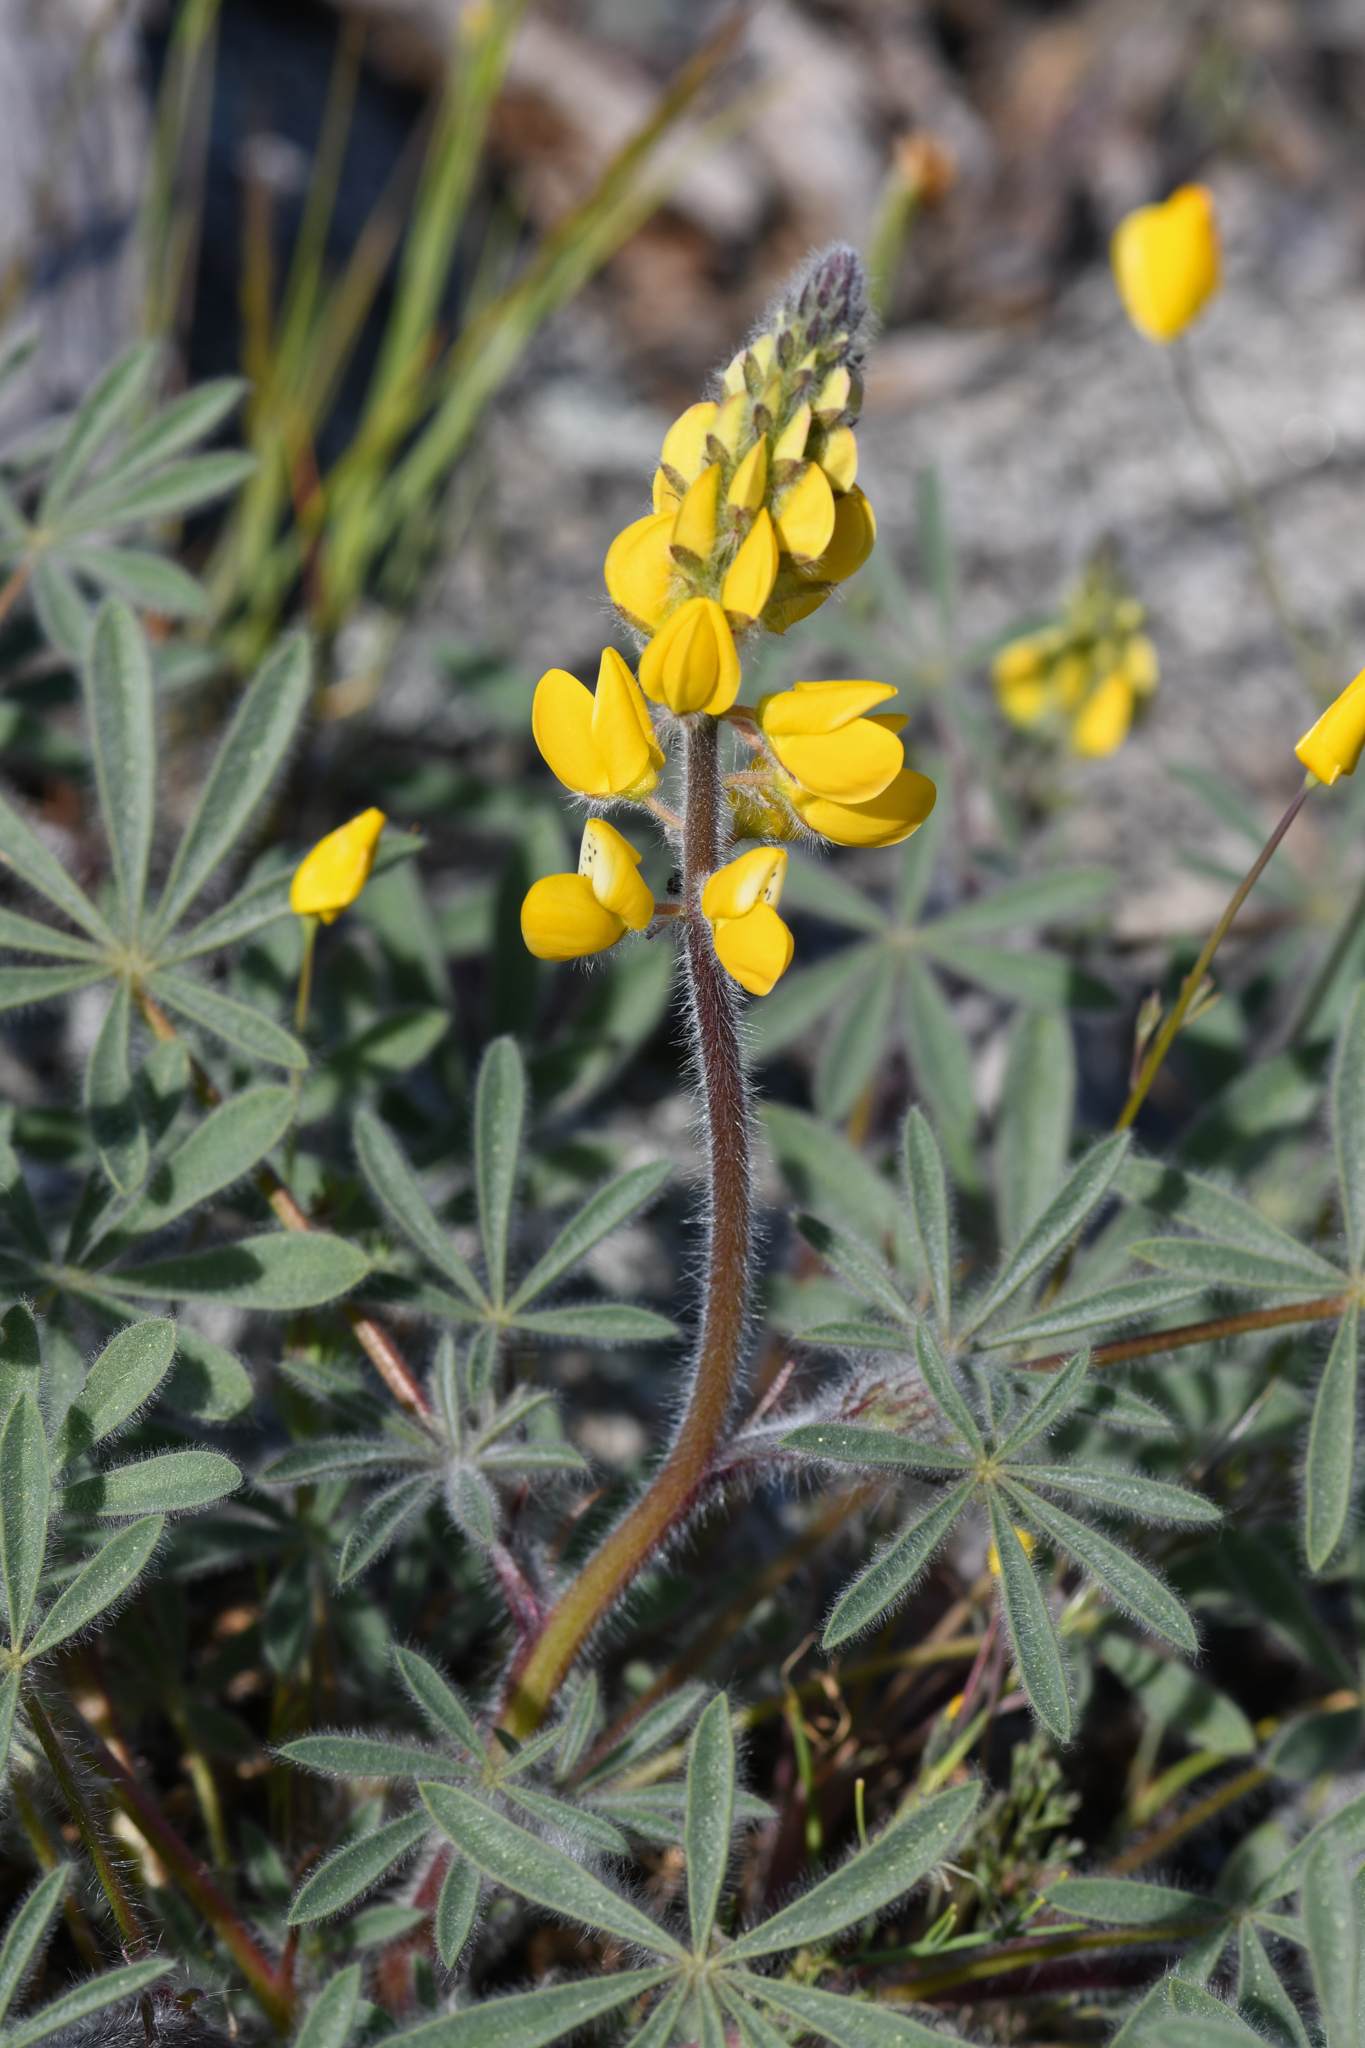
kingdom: Plantae
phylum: Tracheophyta
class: Magnoliopsida
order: Fabales
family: Fabaceae
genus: Lupinus
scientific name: Lupinus citrinus
